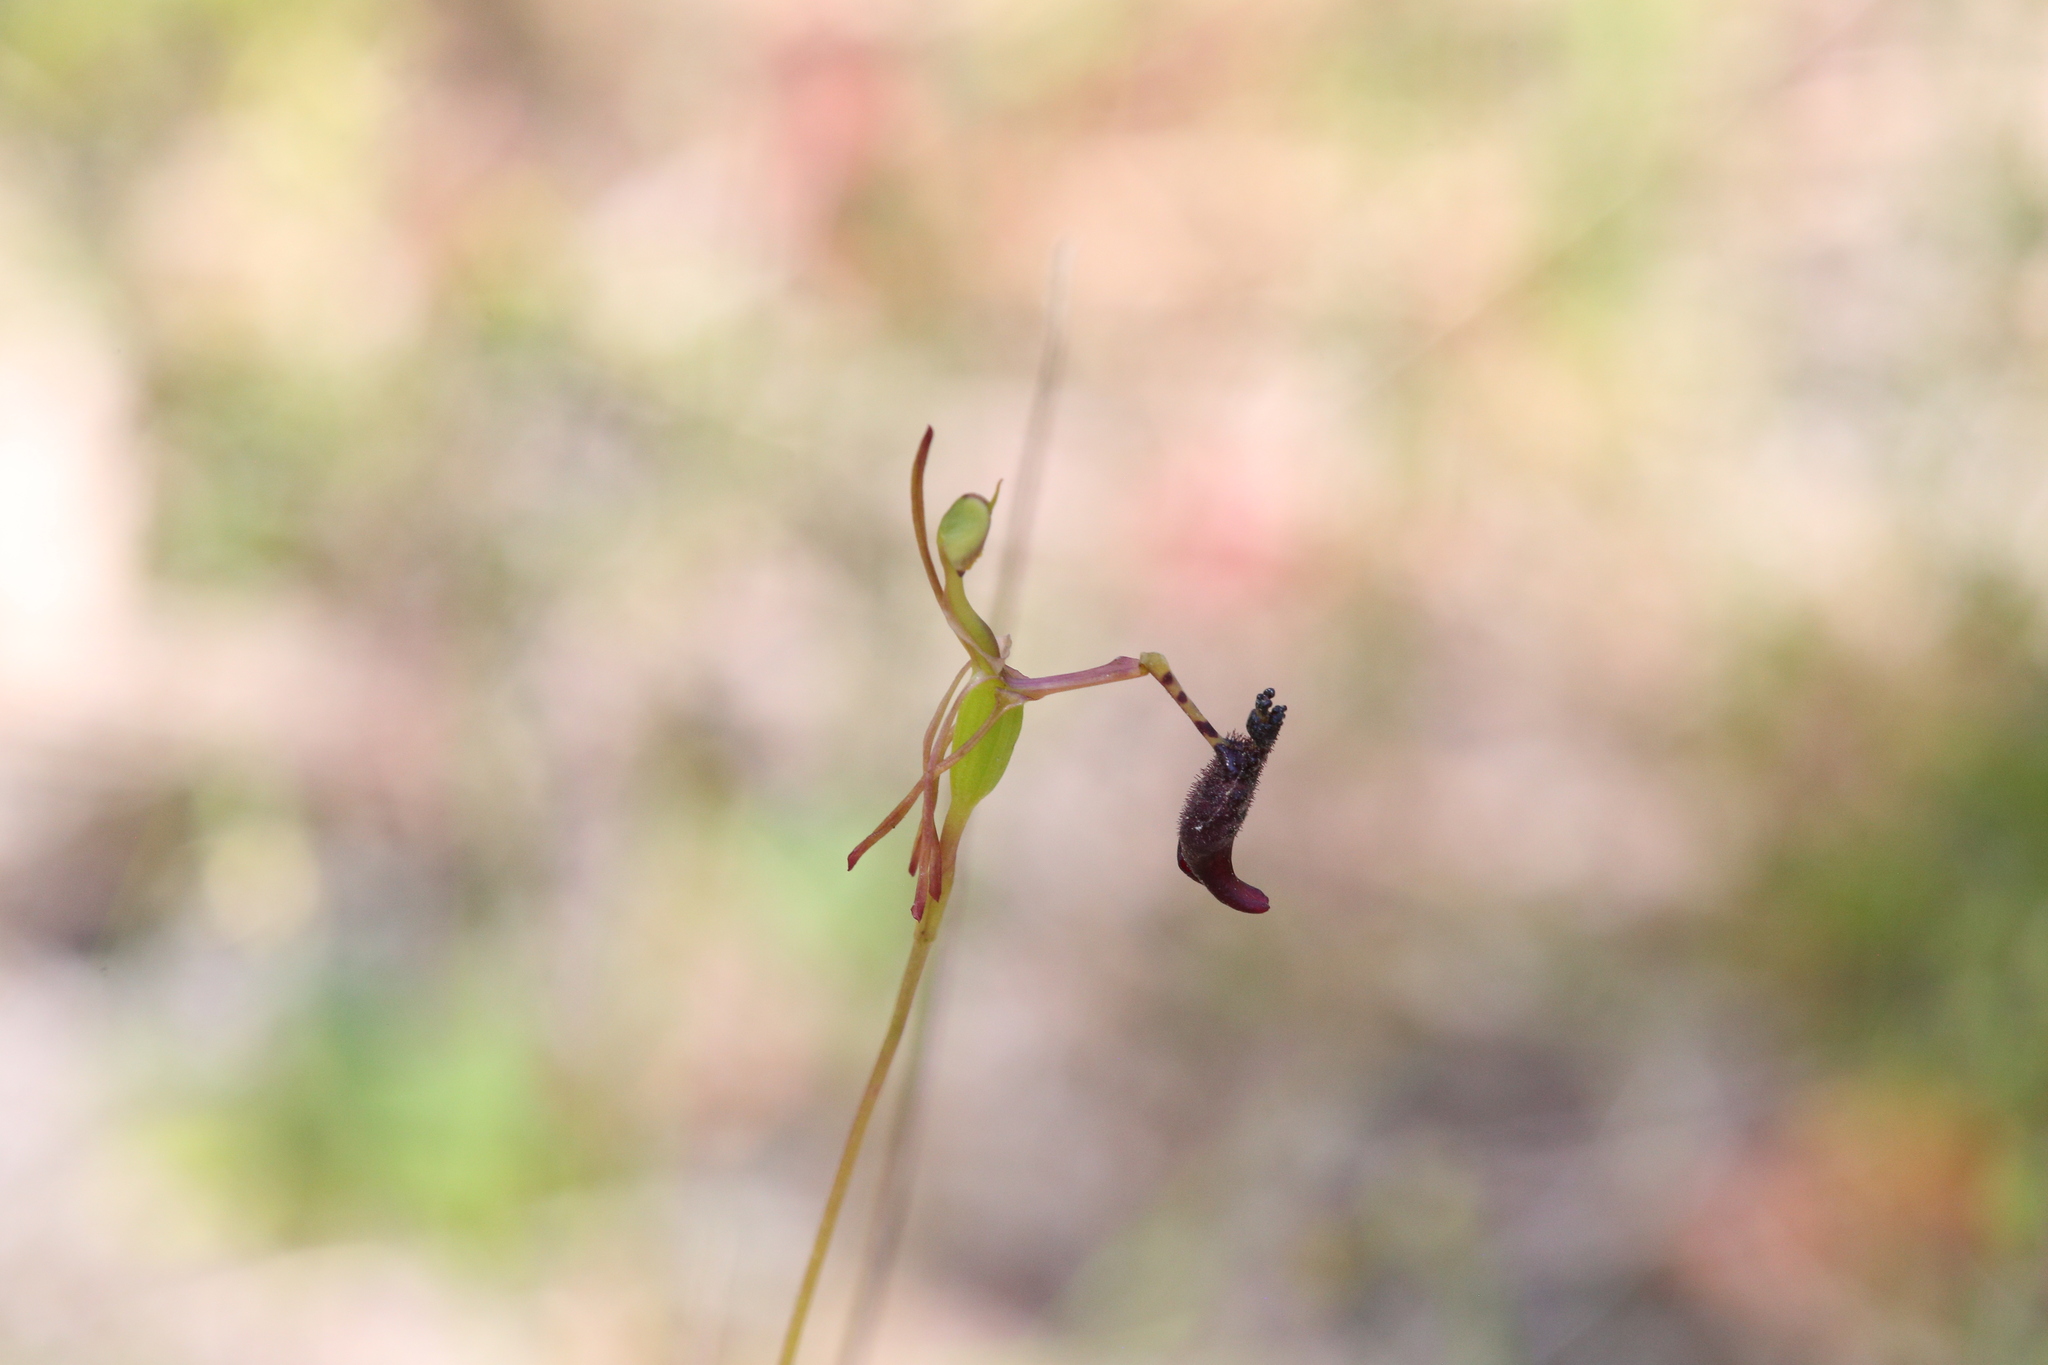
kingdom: Plantae
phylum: Tracheophyta
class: Liliopsida
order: Asparagales
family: Orchidaceae
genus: Drakaea
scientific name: Drakaea livida
